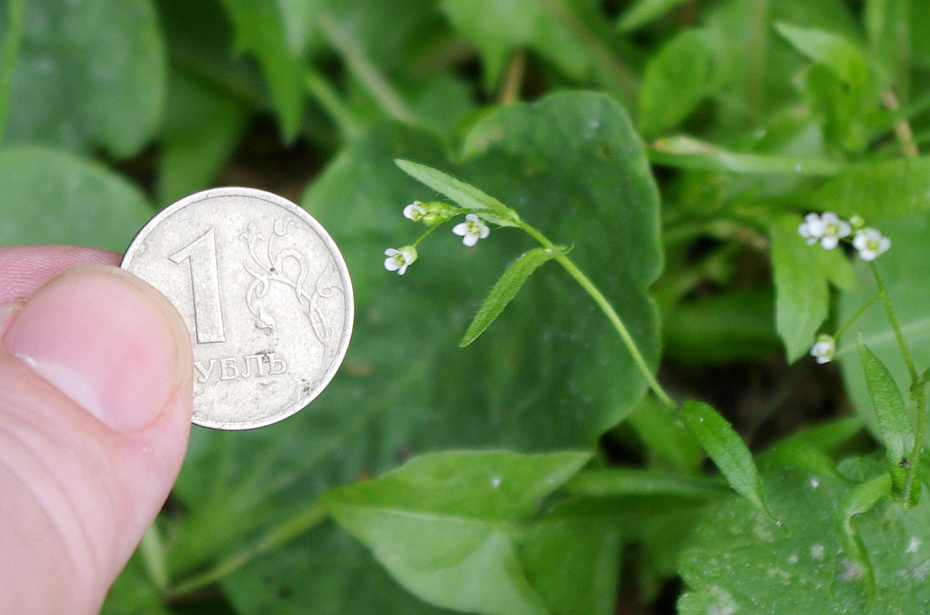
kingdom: Plantae
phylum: Tracheophyta
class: Magnoliopsida
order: Brassicales
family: Brassicaceae
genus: Capsella
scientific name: Capsella bursa-pastoris
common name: Shepherd's purse
